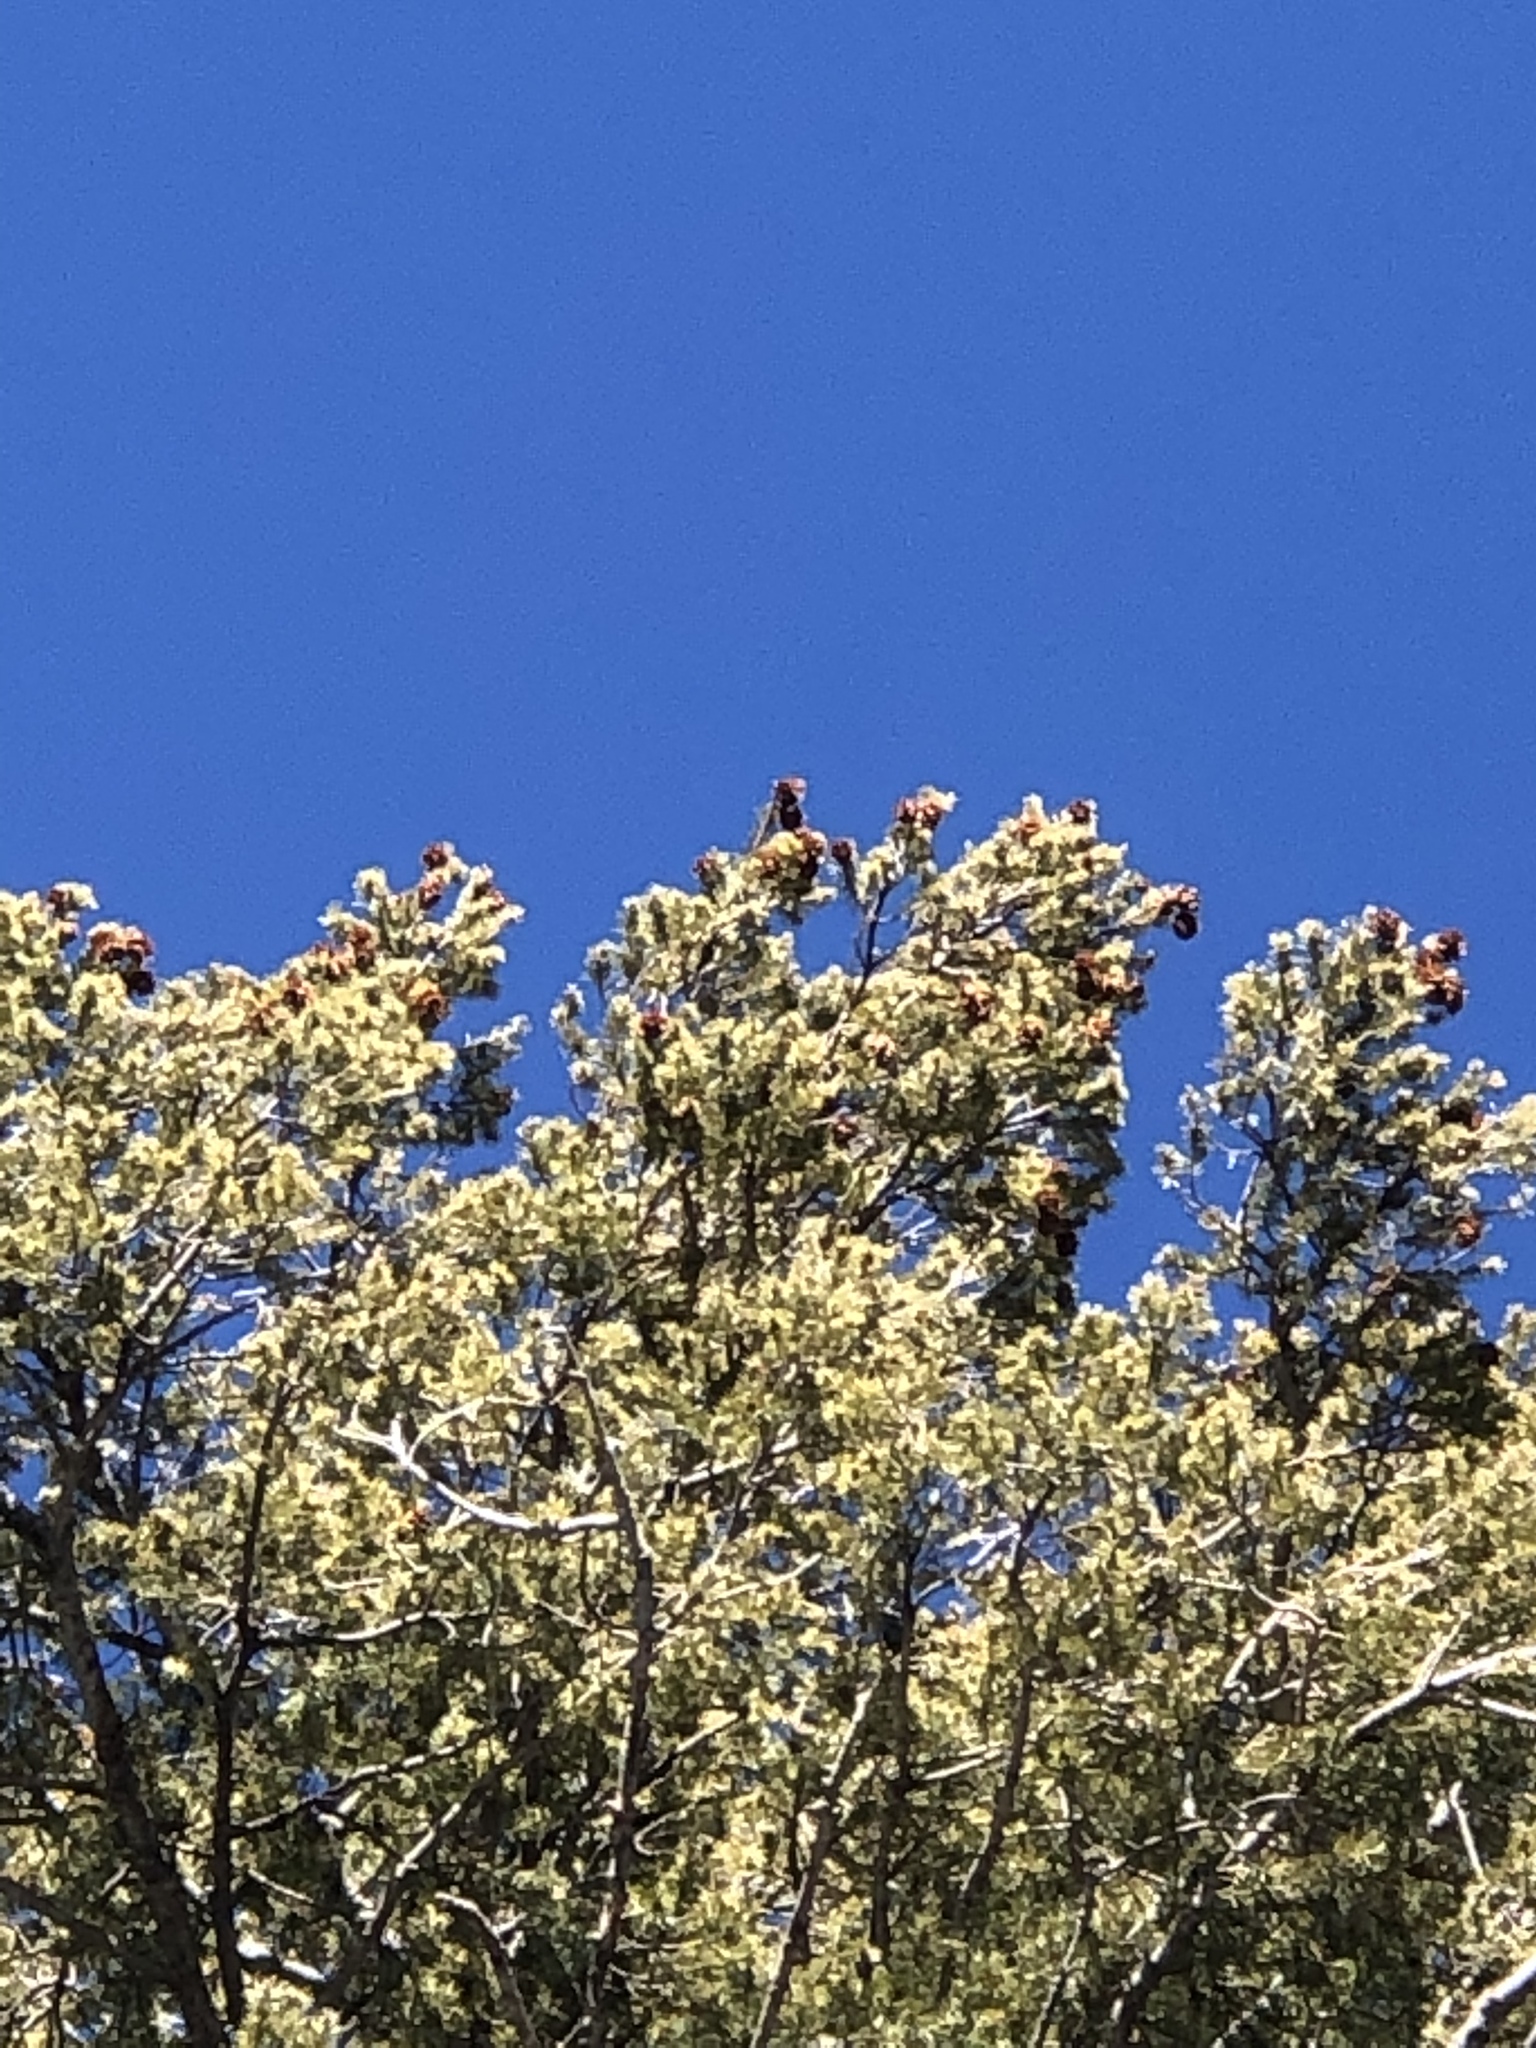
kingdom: Plantae
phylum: Tracheophyta
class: Pinopsida
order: Pinales
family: Pinaceae
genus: Pseudotsuga
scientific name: Pseudotsuga menziesii
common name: Douglas fir
